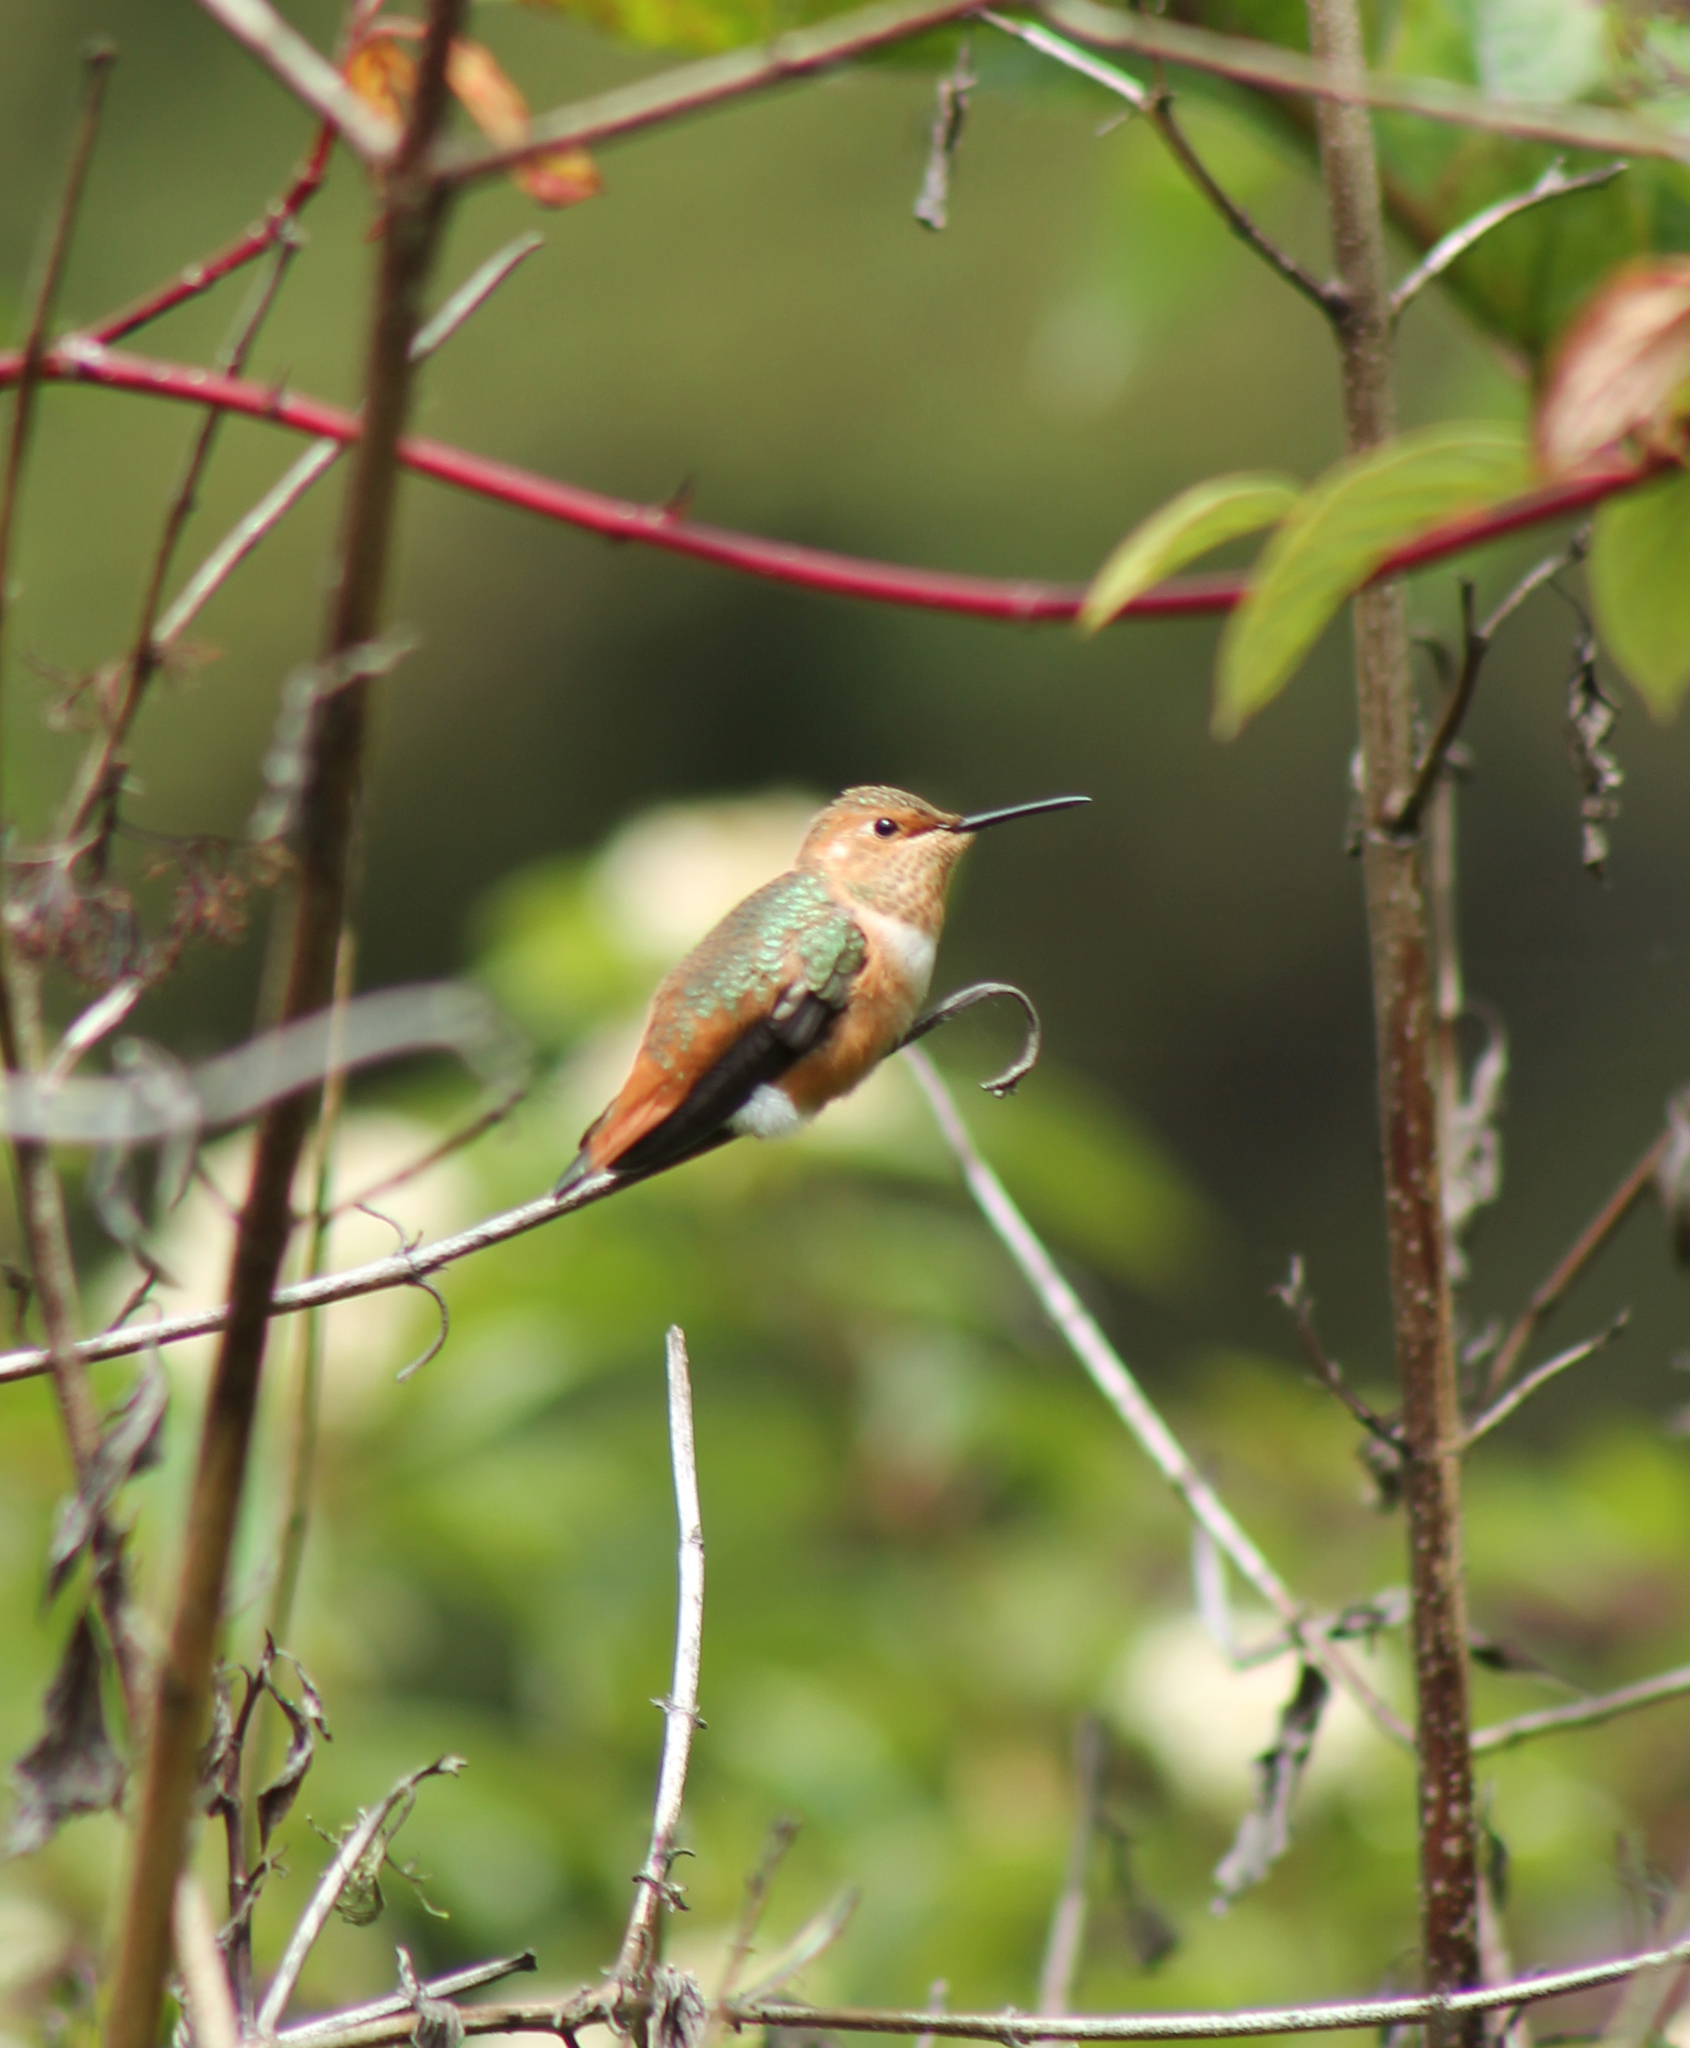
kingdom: Animalia
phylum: Chordata
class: Aves
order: Apodiformes
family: Trochilidae
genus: Selasphorus
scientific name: Selasphorus sasin
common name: Allen's hummingbird
